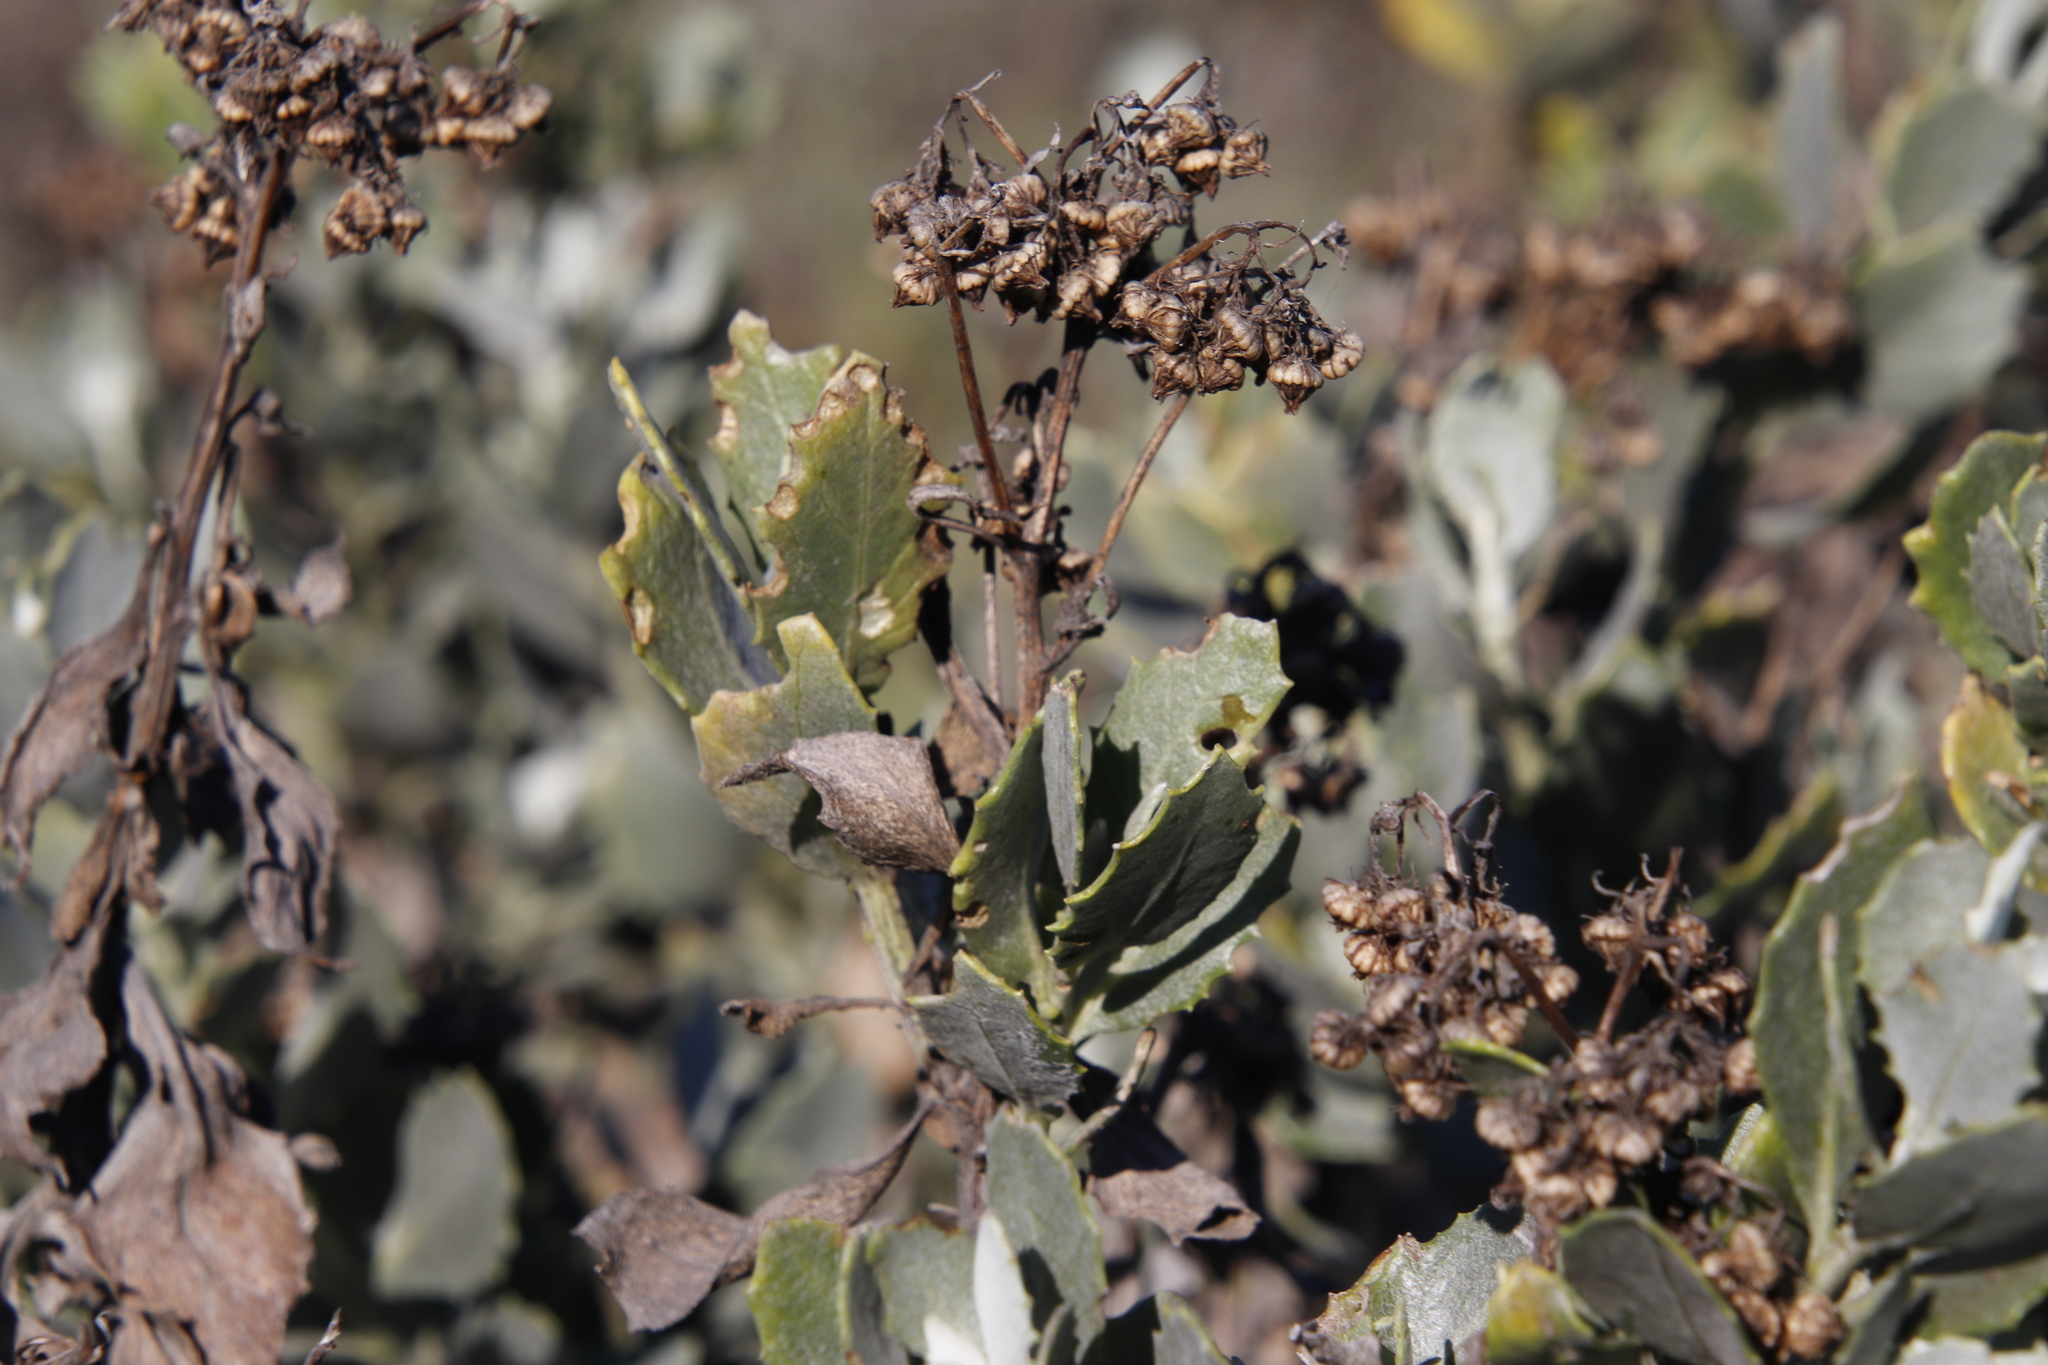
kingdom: Plantae
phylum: Tracheophyta
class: Magnoliopsida
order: Asterales
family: Asteraceae
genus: Senecio
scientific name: Senecio halimifolius
